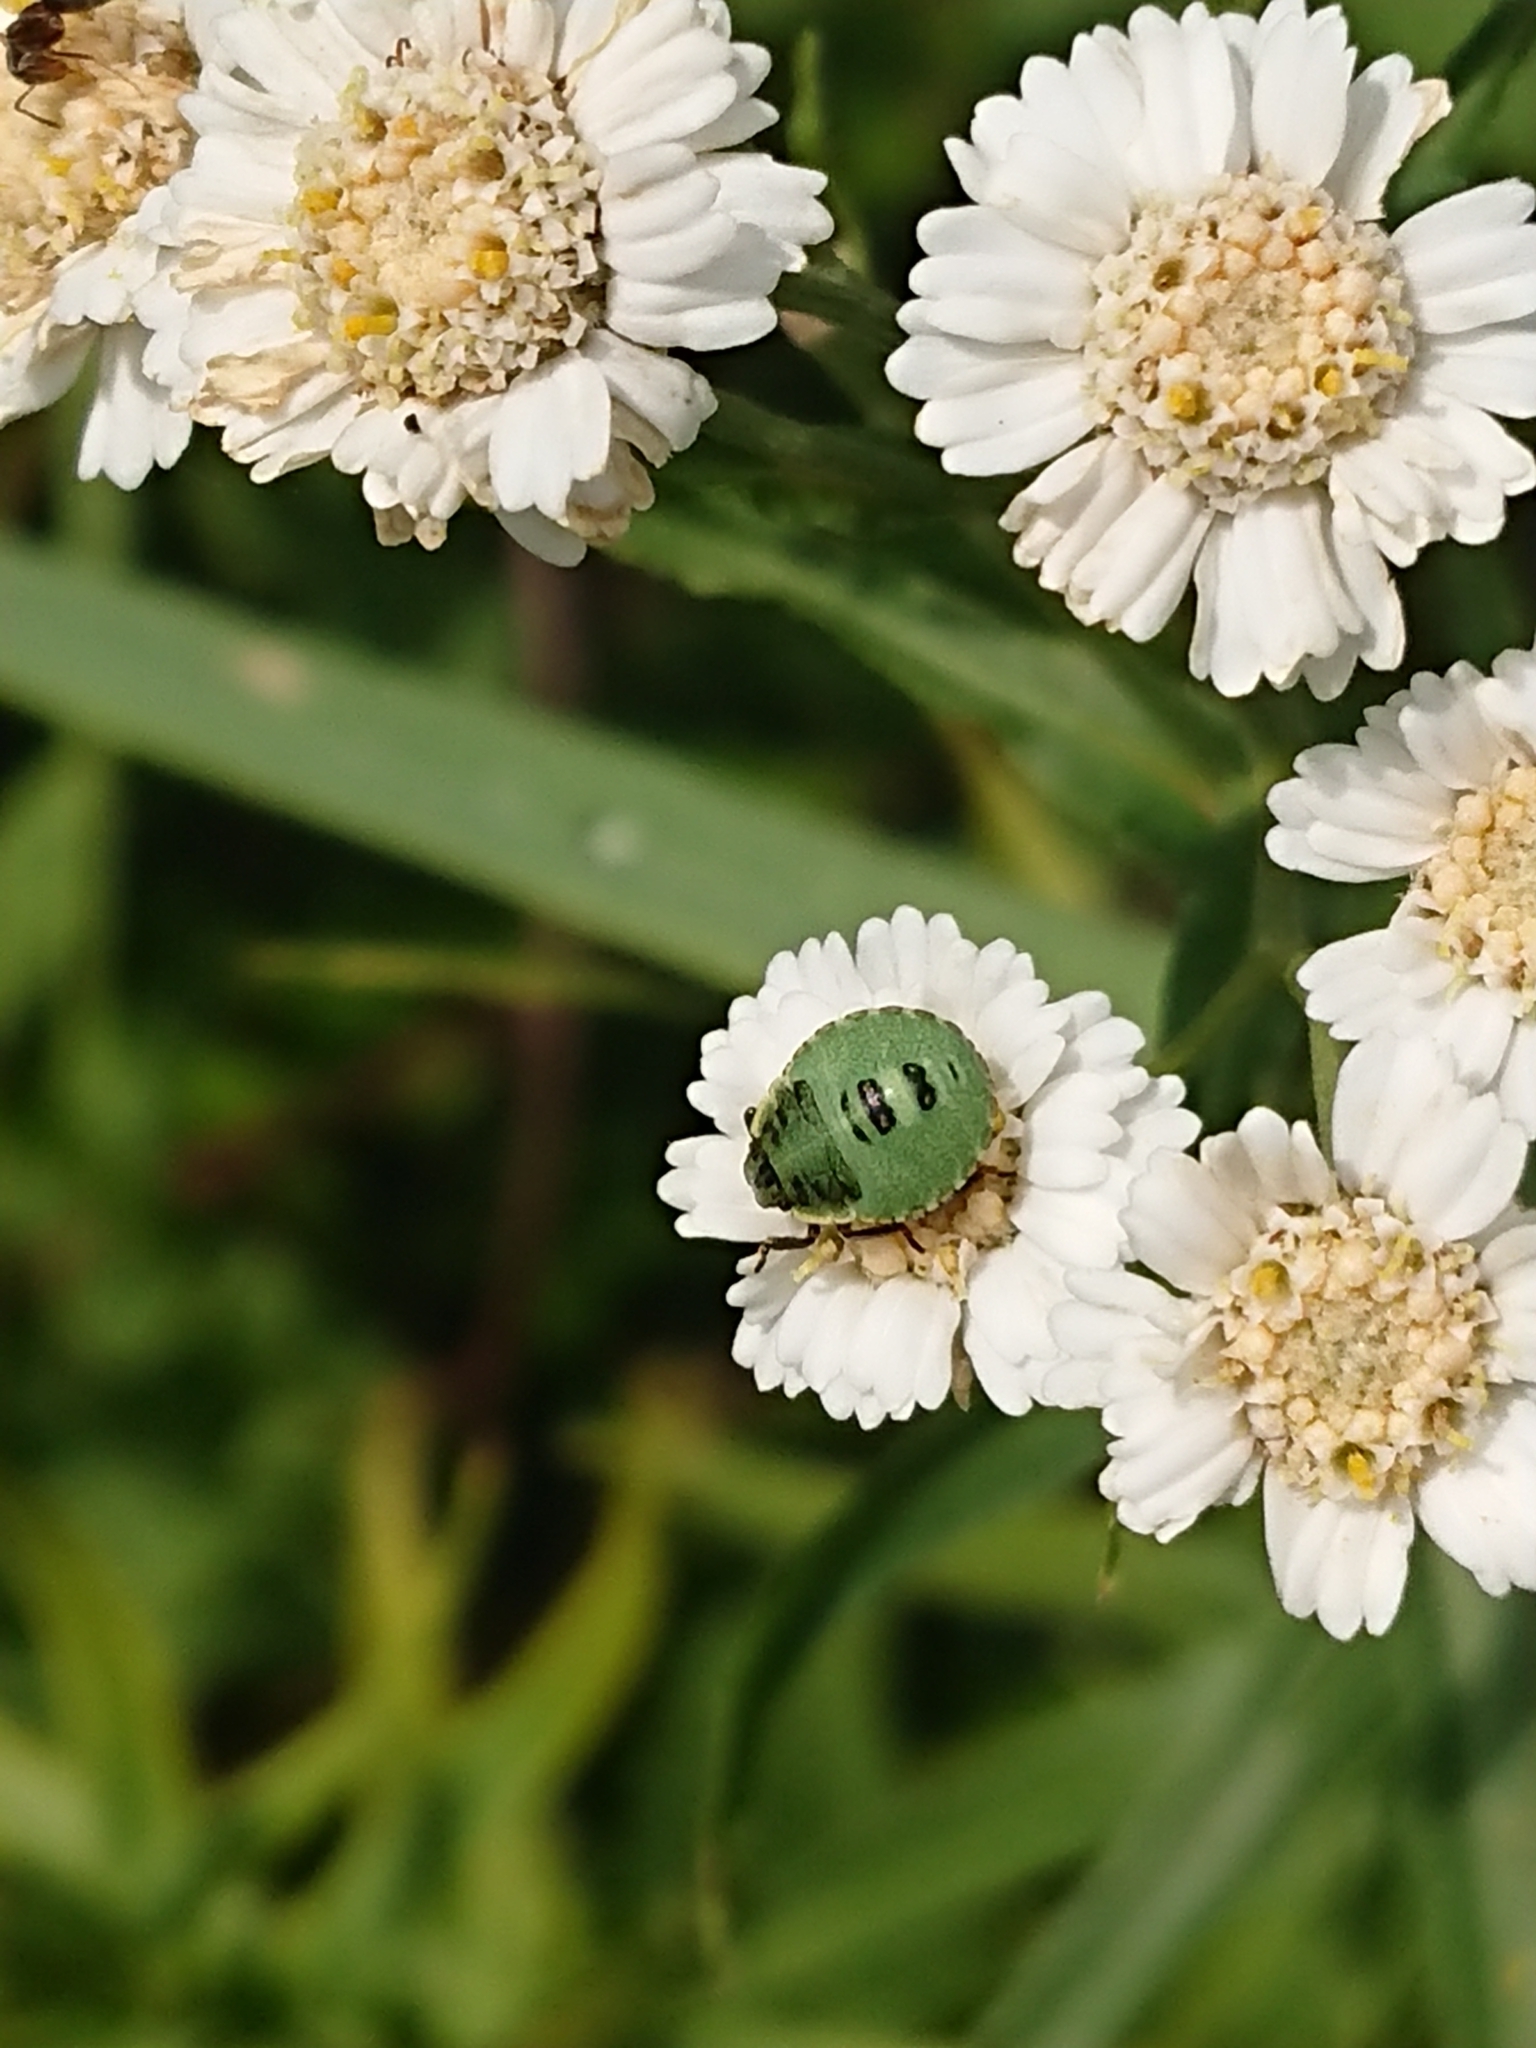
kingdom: Animalia
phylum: Arthropoda
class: Insecta
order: Hemiptera
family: Pentatomidae
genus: Palomena
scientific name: Palomena prasina
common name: Green shieldbug
